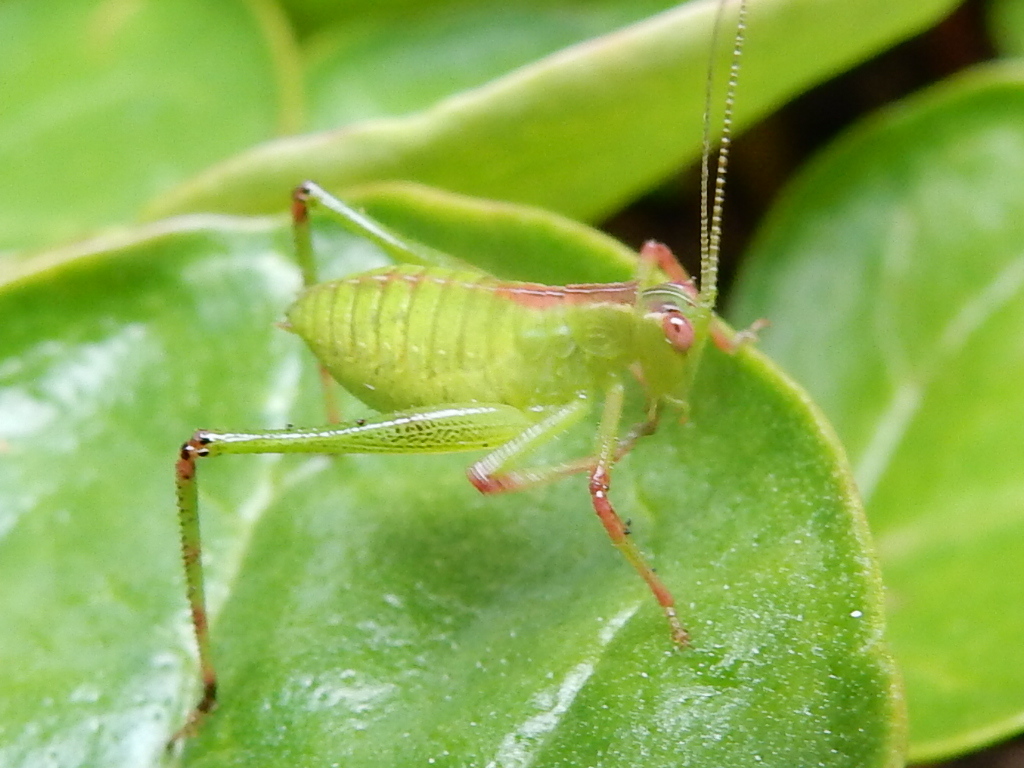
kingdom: Animalia
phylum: Arthropoda
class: Insecta
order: Orthoptera
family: Tettigoniidae
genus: Caedicia
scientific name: Caedicia simplex
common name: Common garden katydid
